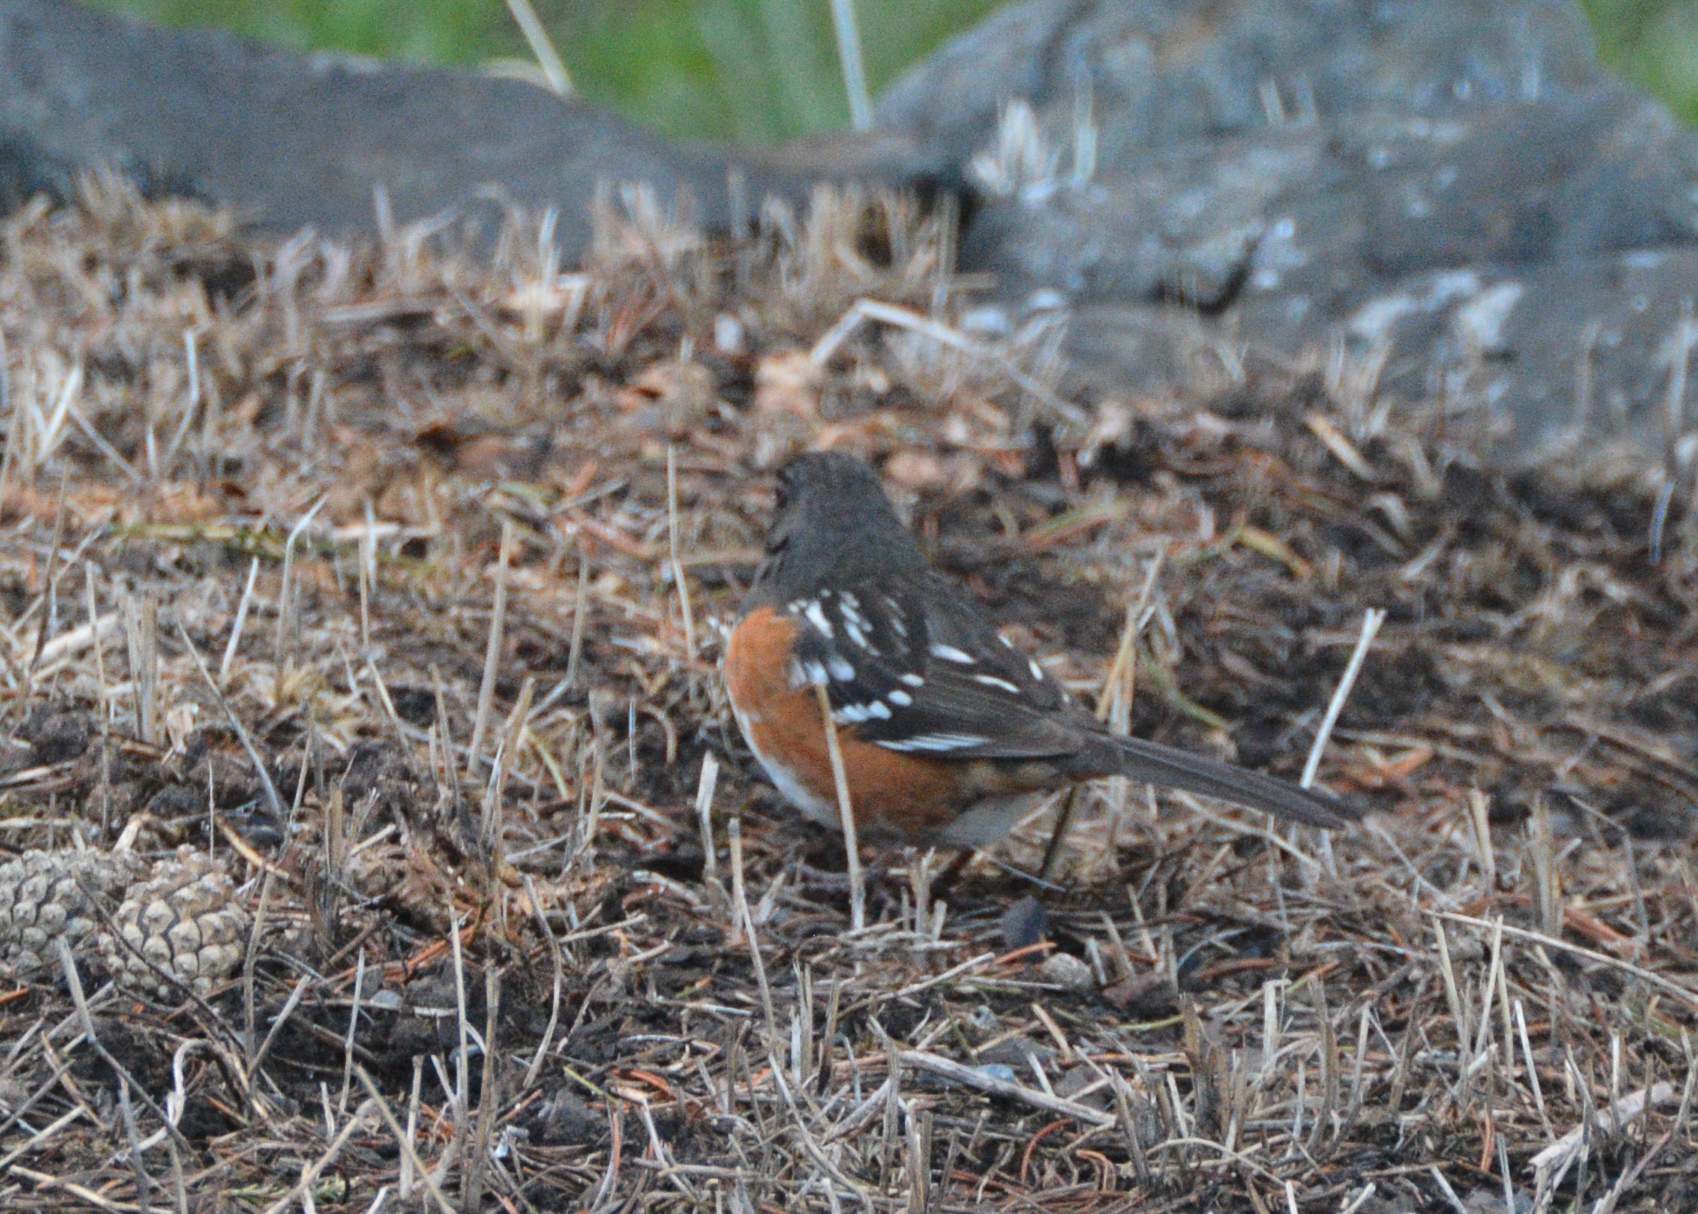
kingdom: Animalia
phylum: Chordata
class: Aves
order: Passeriformes
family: Passerellidae
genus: Pipilo
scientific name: Pipilo maculatus
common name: Spotted towhee
